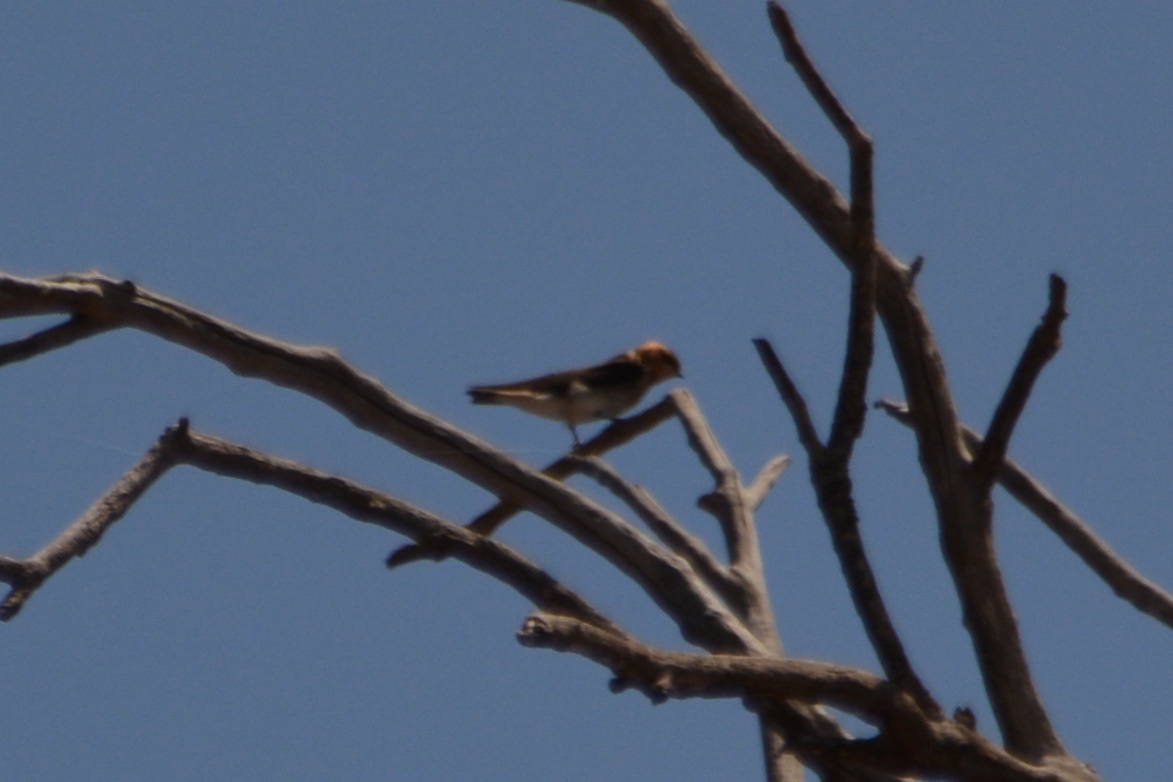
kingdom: Animalia
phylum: Chordata
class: Aves
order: Passeriformes
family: Hirundinidae
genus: Alopochelidon
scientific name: Alopochelidon fucata
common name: Tawny-headed swallow
